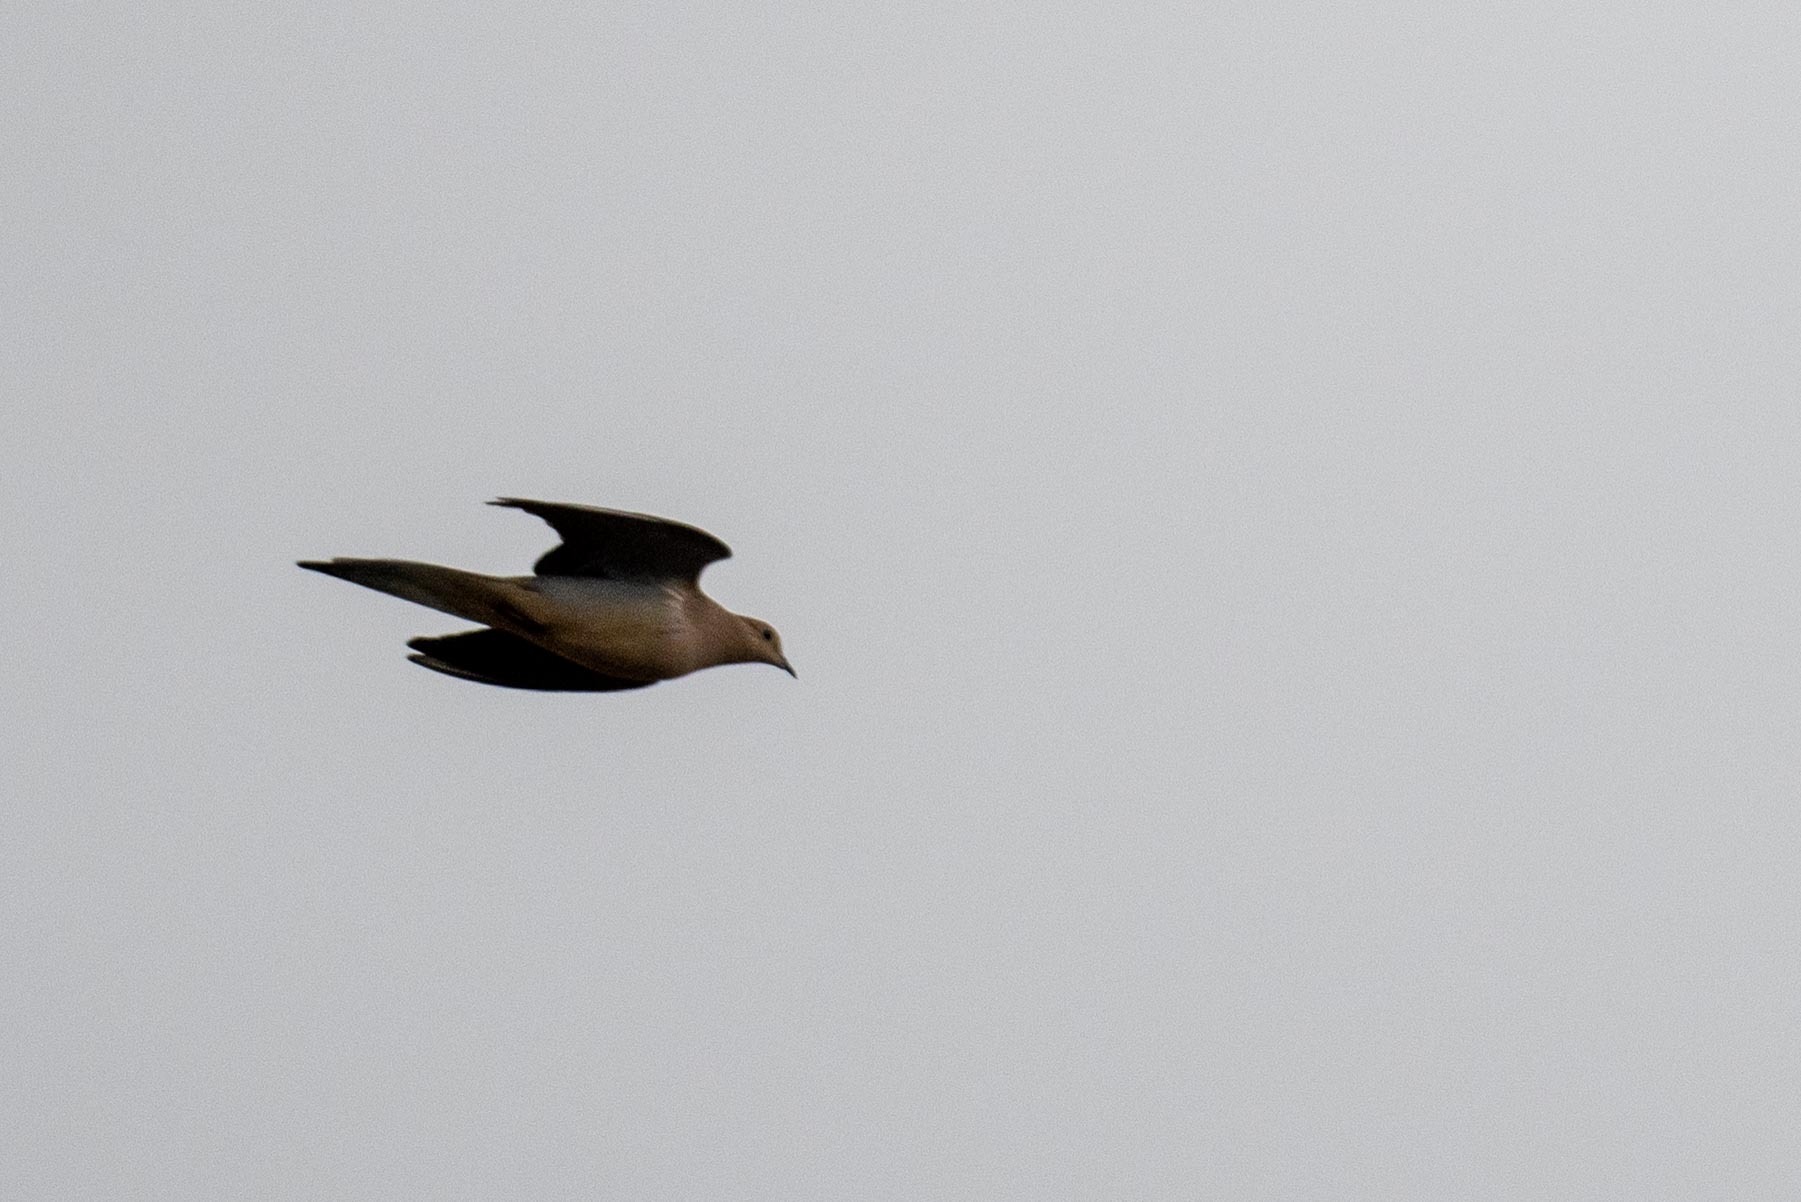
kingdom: Animalia
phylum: Chordata
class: Aves
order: Columbiformes
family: Columbidae
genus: Zenaida
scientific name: Zenaida macroura
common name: Mourning dove
